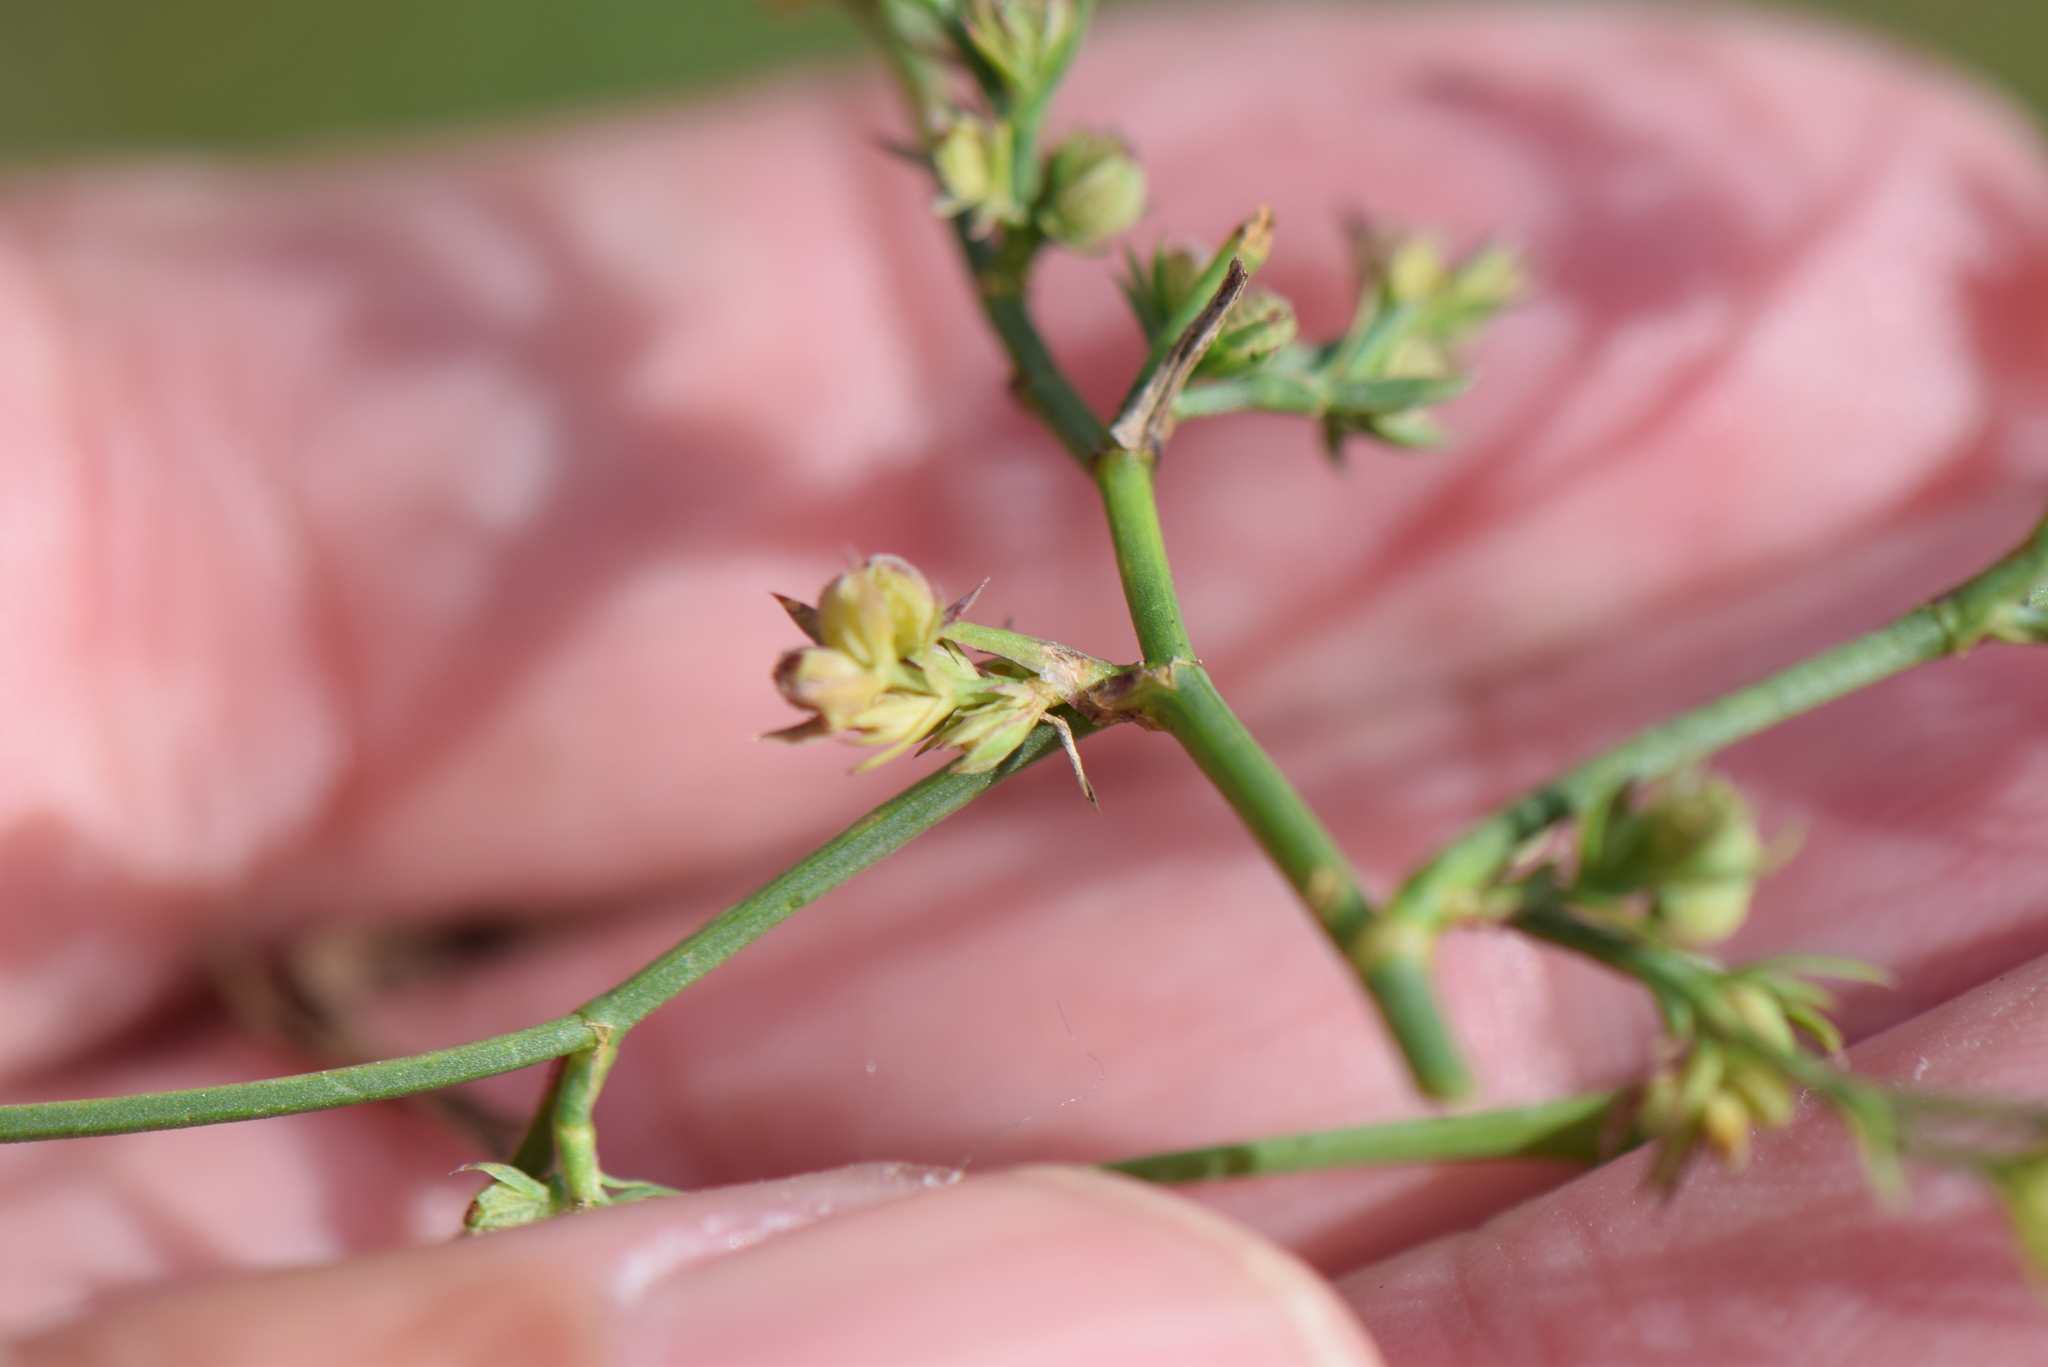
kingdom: Plantae
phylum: Tracheophyta
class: Magnoliopsida
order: Apiales
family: Apiaceae
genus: Bupleurum
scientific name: Bupleurum tenuissimum
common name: Slender hare's-ear
